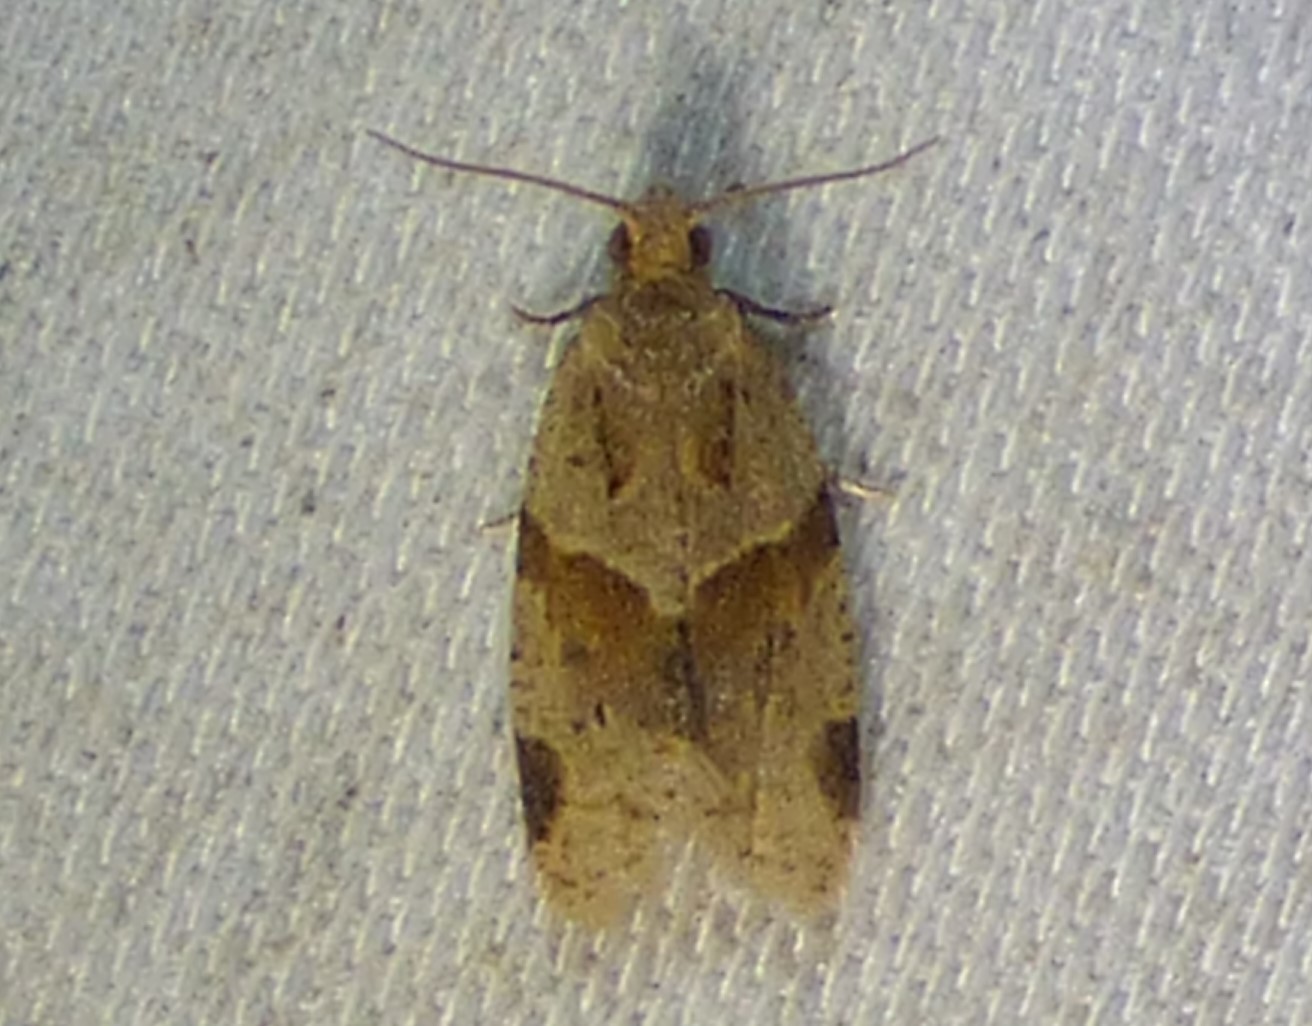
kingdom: Animalia
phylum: Arthropoda
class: Insecta
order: Lepidoptera
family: Tortricidae
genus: Clepsis
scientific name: Clepsis peritana
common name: Garden tortrix
